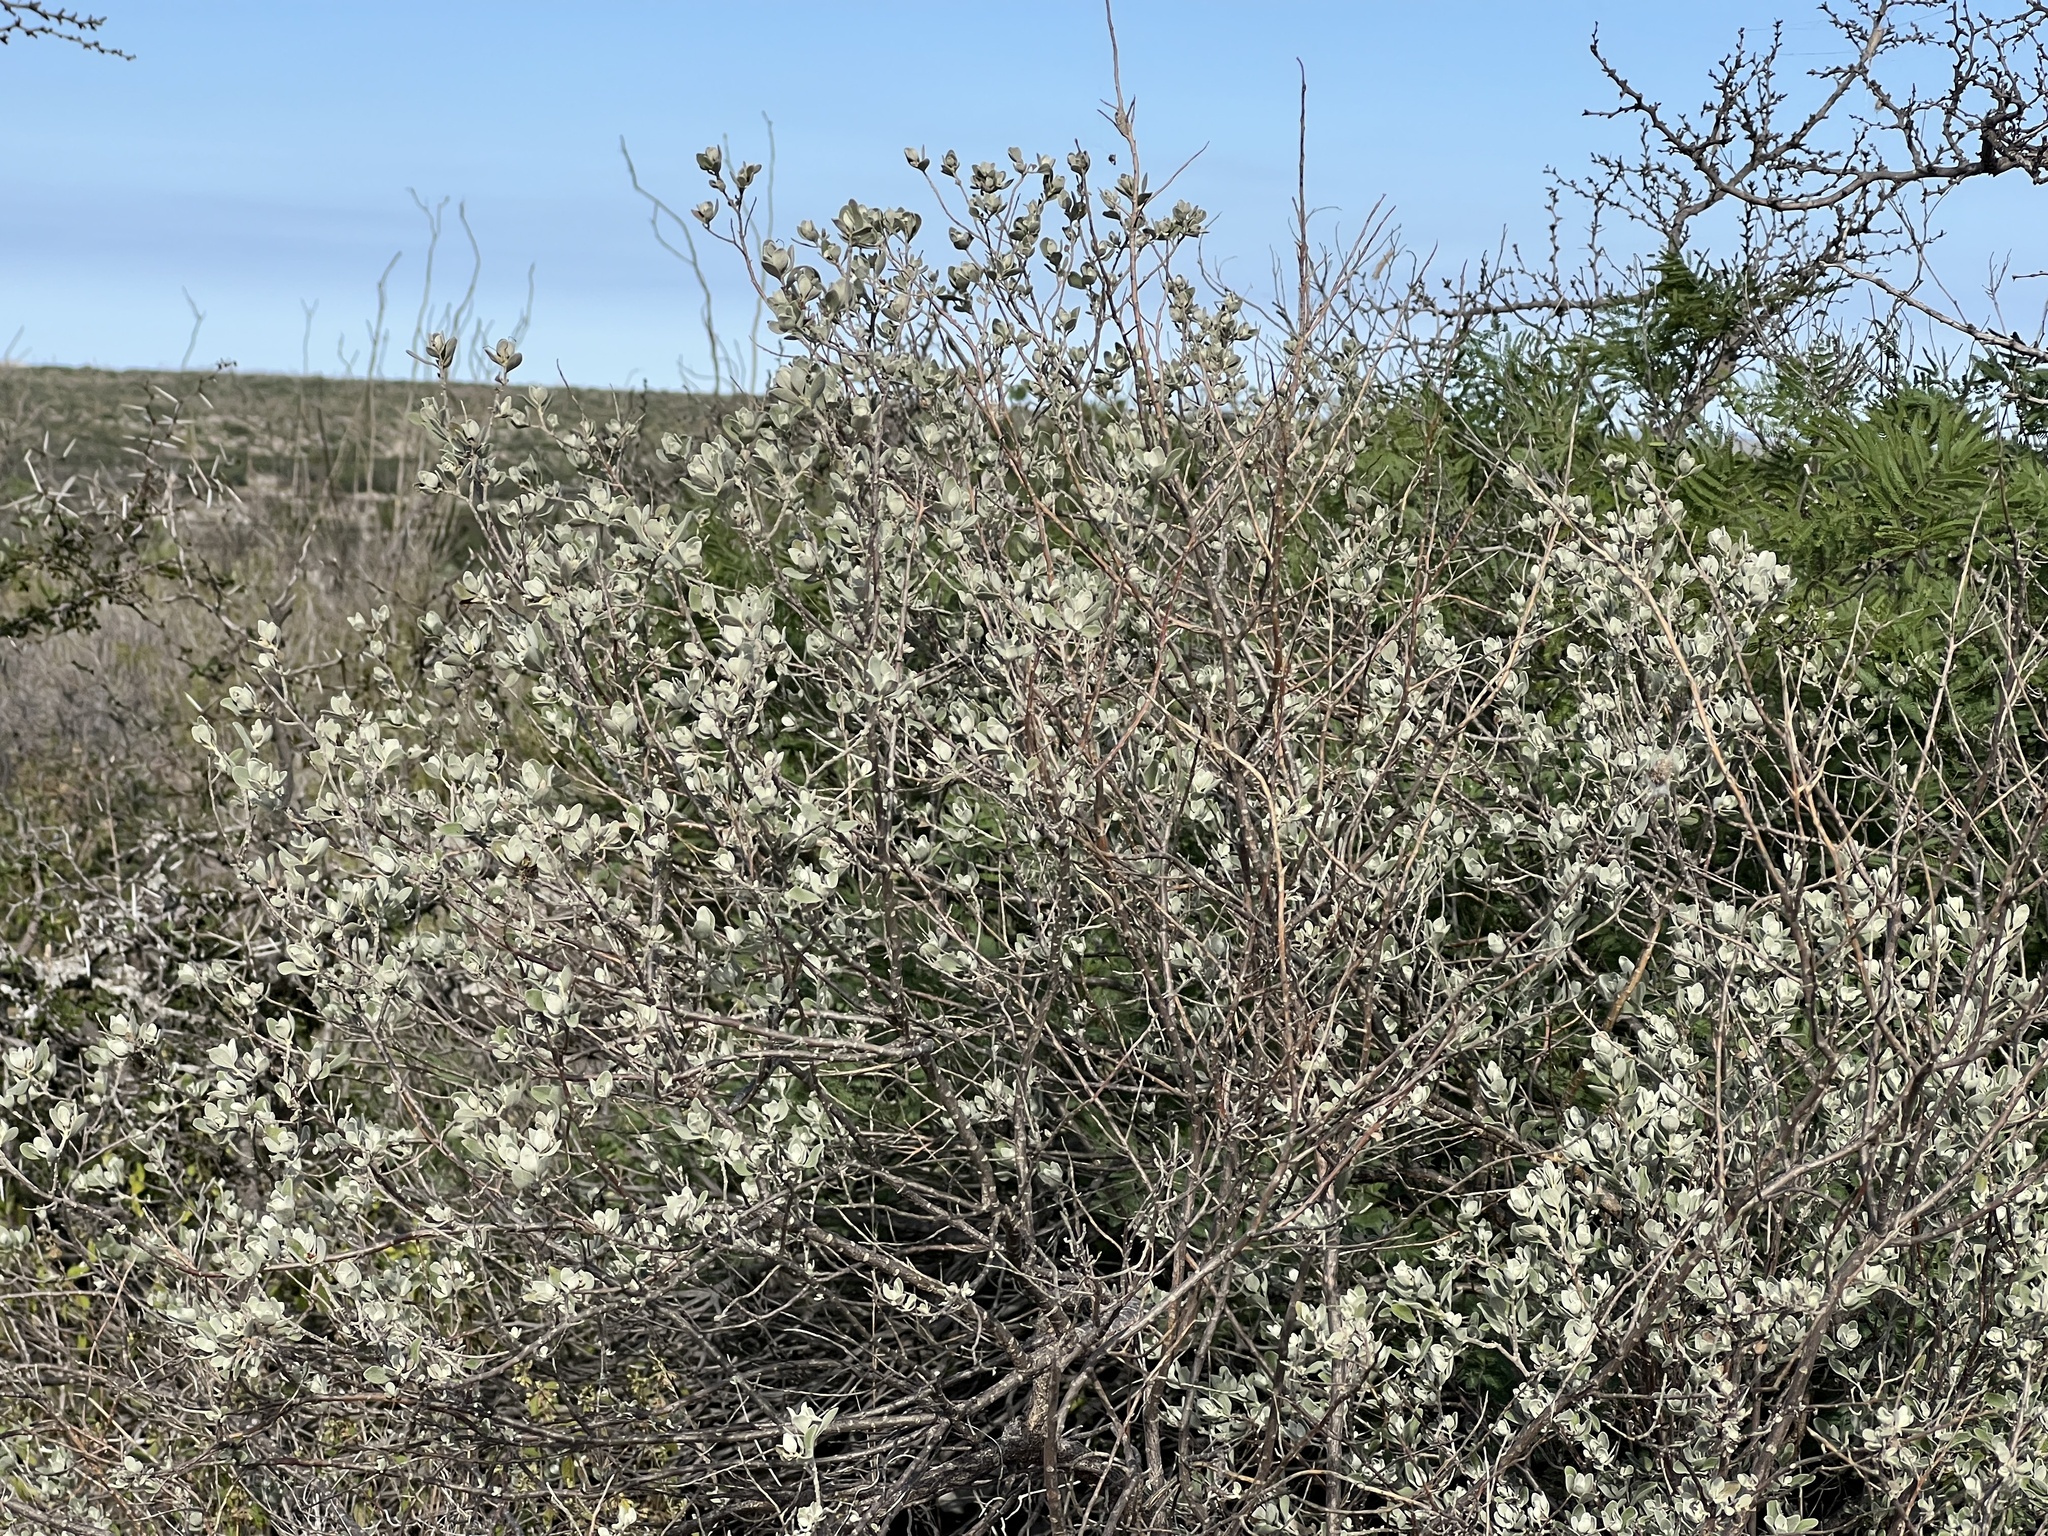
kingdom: Plantae
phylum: Tracheophyta
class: Magnoliopsida
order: Lamiales
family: Scrophulariaceae
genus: Leucophyllum
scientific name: Leucophyllum frutescens
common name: Texas silverleaf
